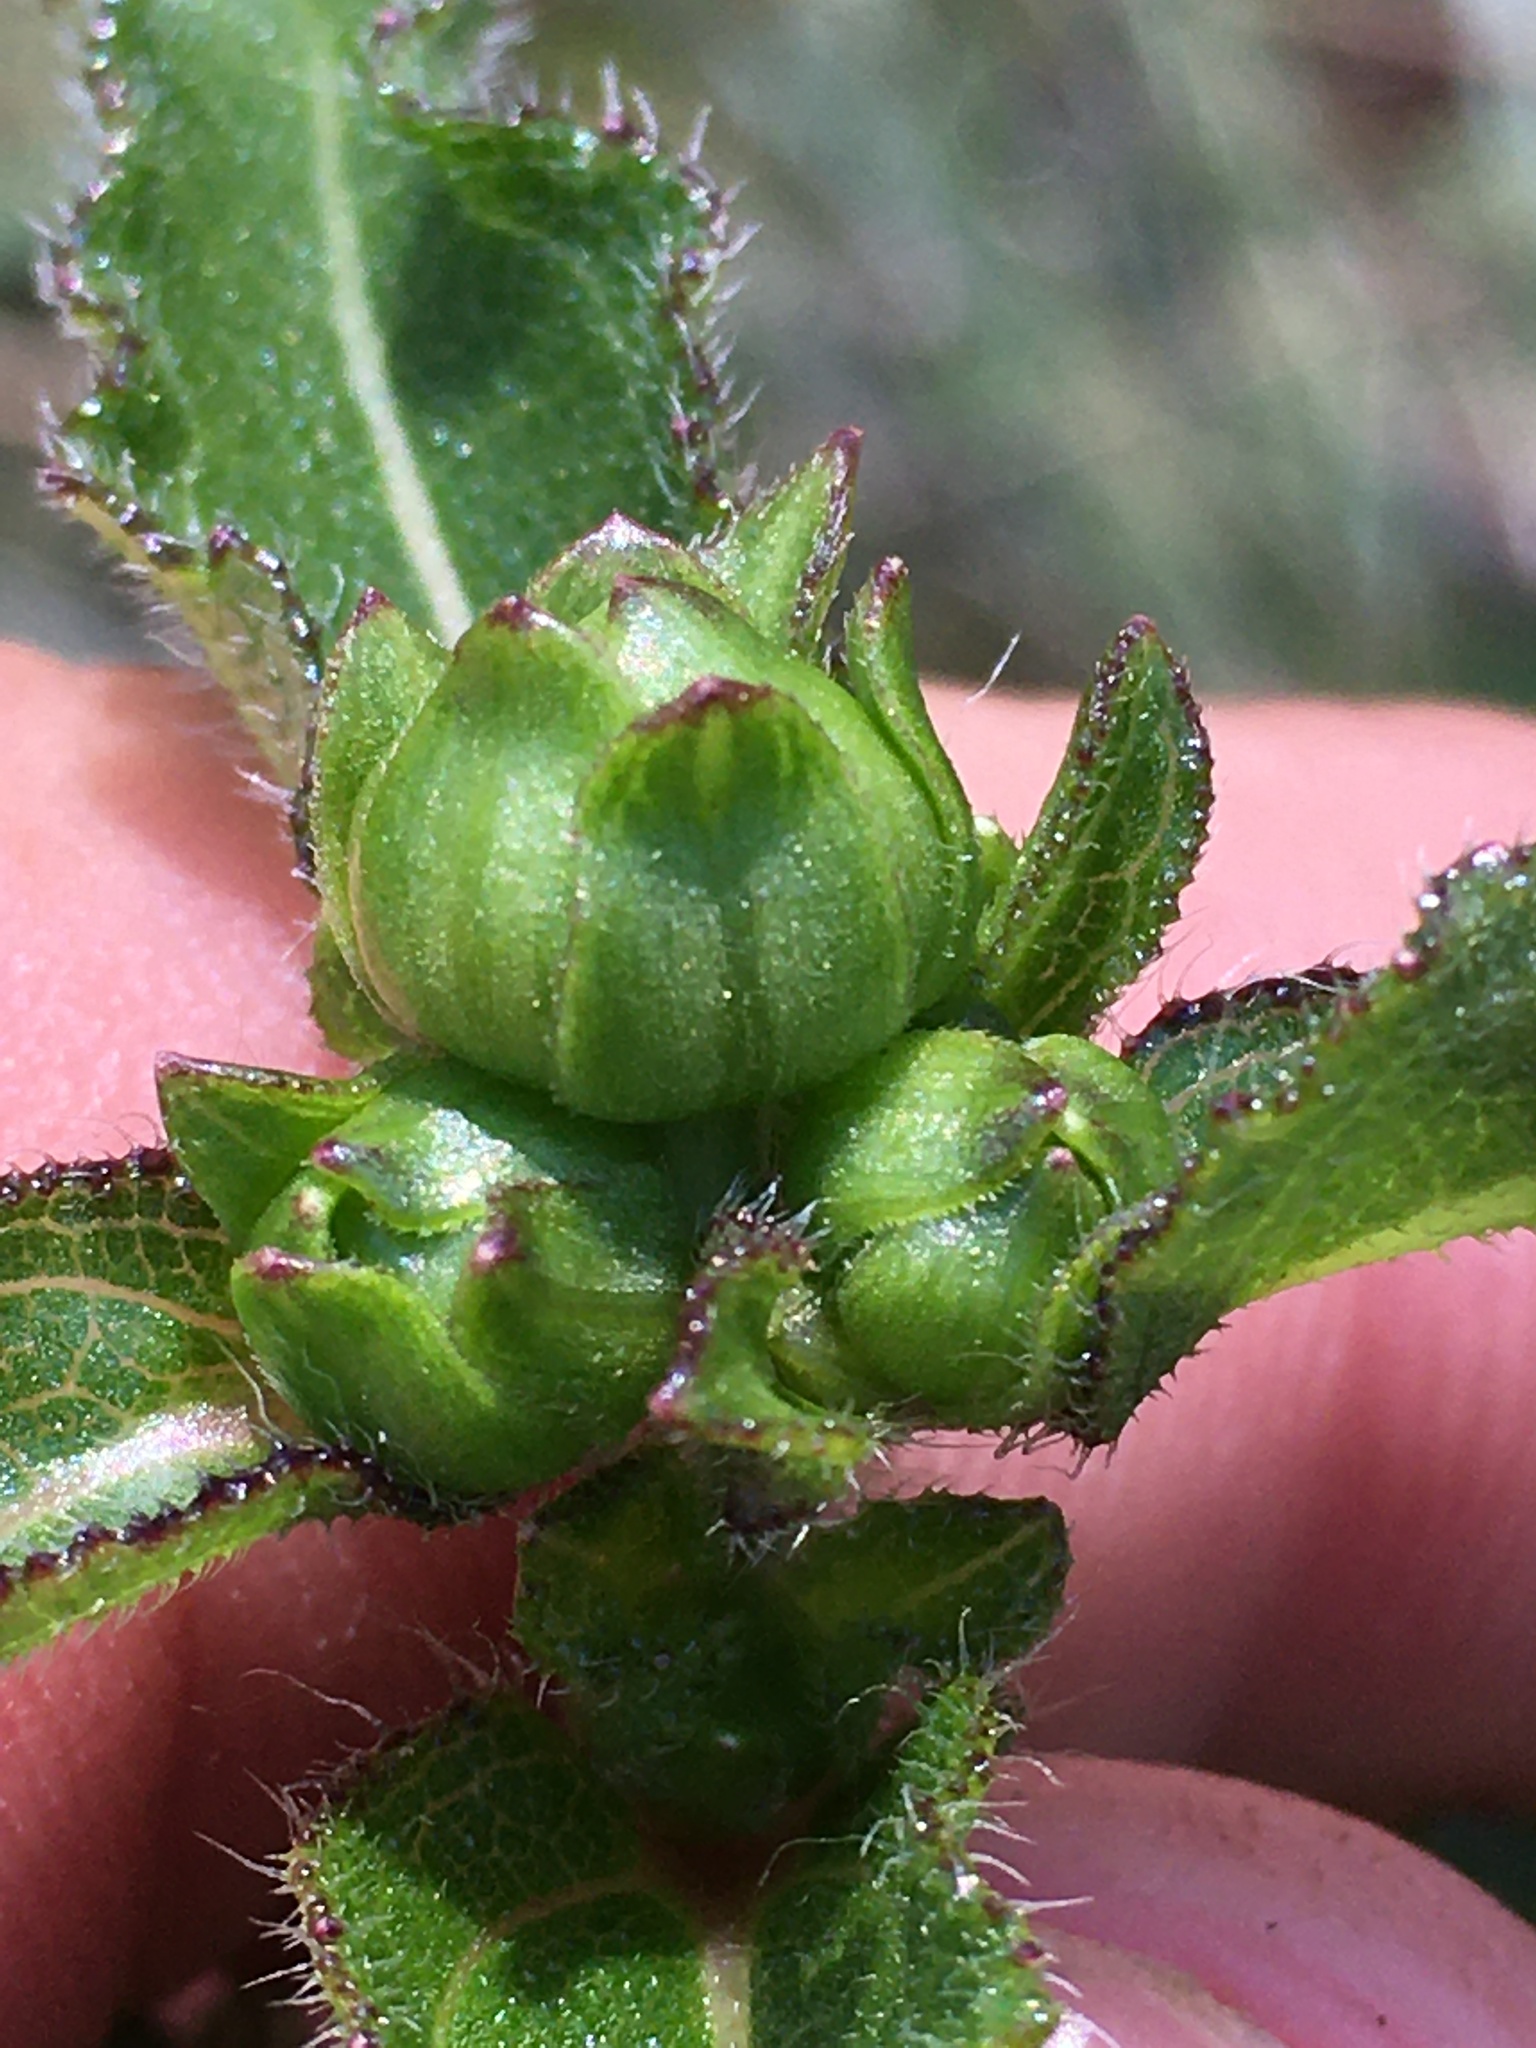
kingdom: Plantae
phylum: Tracheophyta
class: Magnoliopsida
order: Asterales
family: Asteraceae
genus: Helianthus
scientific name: Helianthus atrorubens
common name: Dark-eyed sunflower
